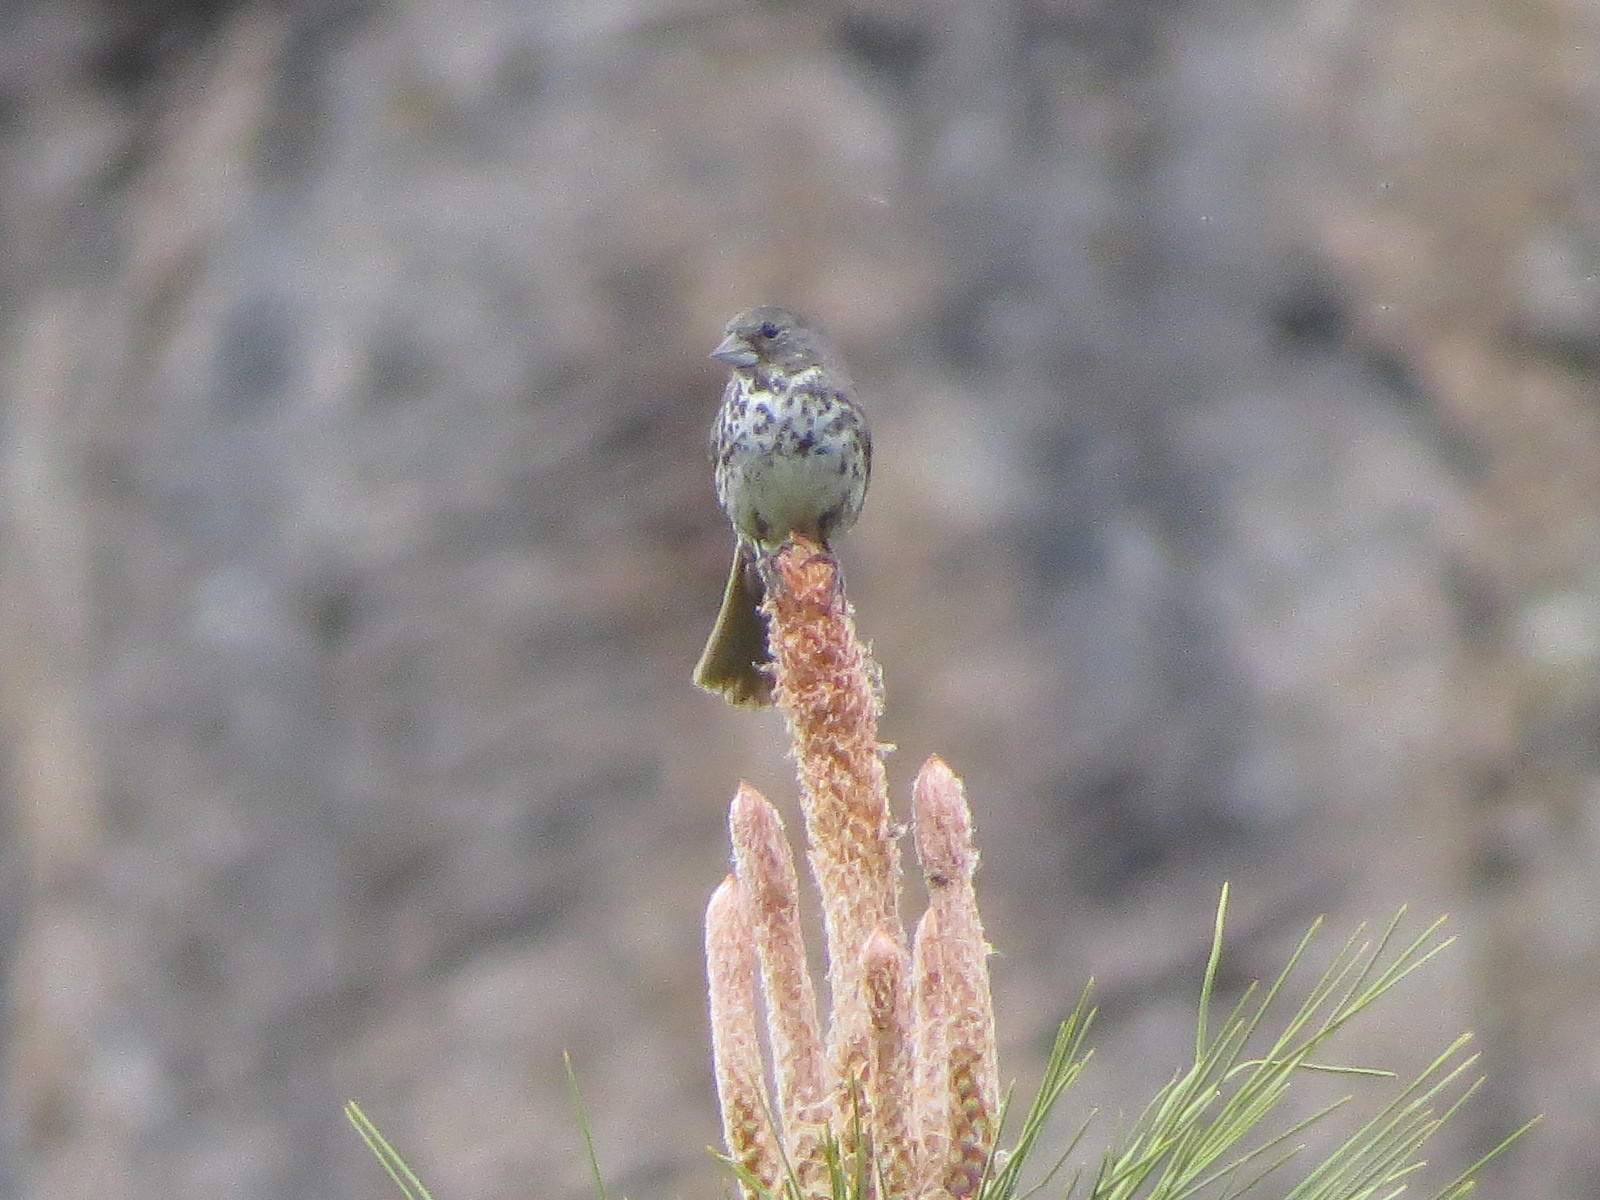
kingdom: Animalia
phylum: Chordata
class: Aves
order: Passeriformes
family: Passerellidae
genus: Passerella
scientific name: Passerella megarhyncha
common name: Thick-billed fox sparrow
